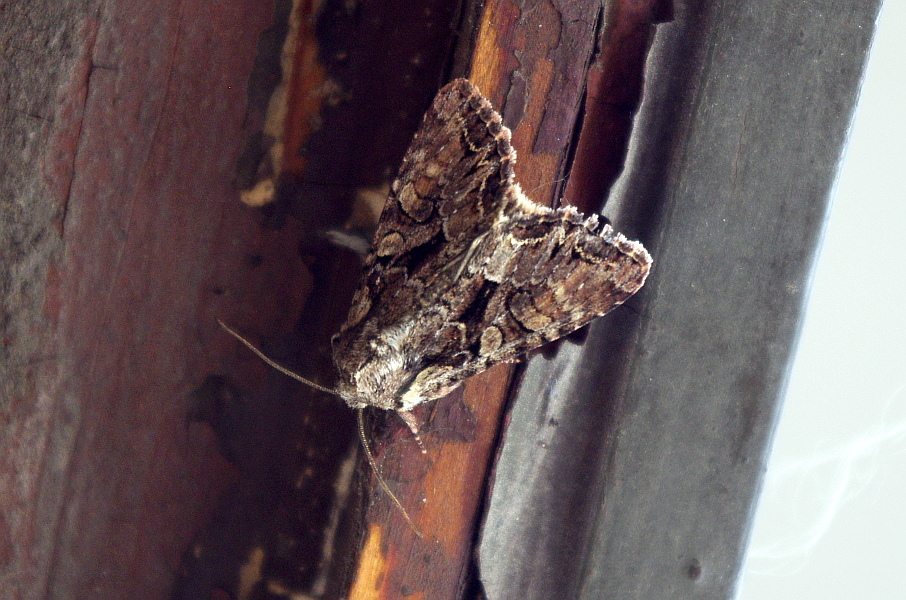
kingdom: Animalia
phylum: Arthropoda
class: Insecta
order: Lepidoptera
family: Noctuidae
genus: Lacanobia
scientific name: Lacanobia thalassina
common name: Pale-shouldered brocade
